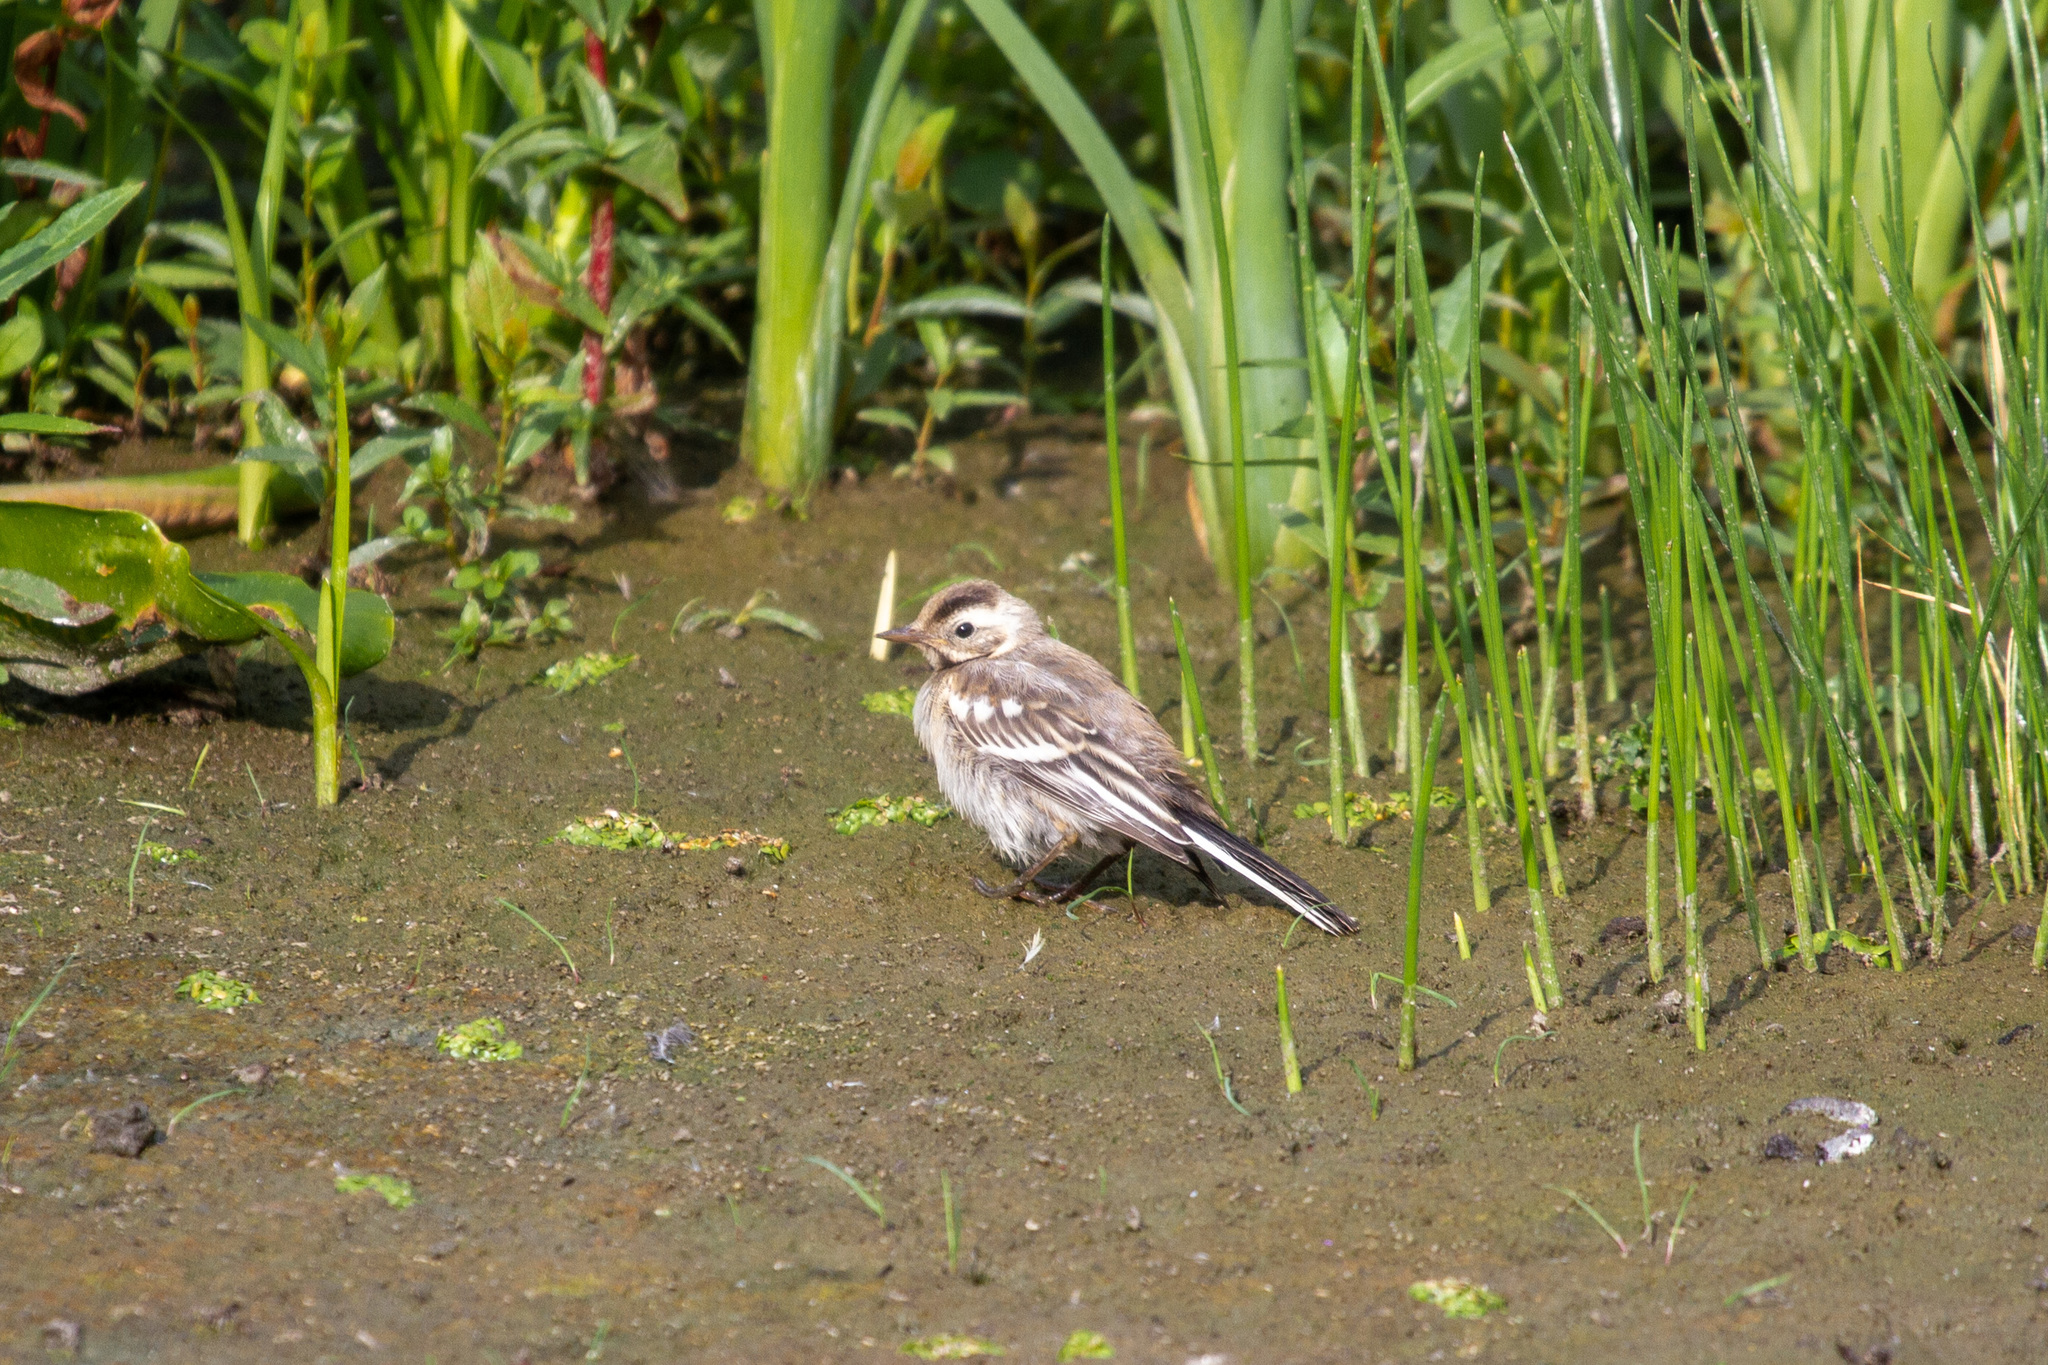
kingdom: Animalia
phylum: Chordata
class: Aves
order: Passeriformes
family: Motacillidae
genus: Motacilla
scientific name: Motacilla citreola
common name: Citrine wagtail
